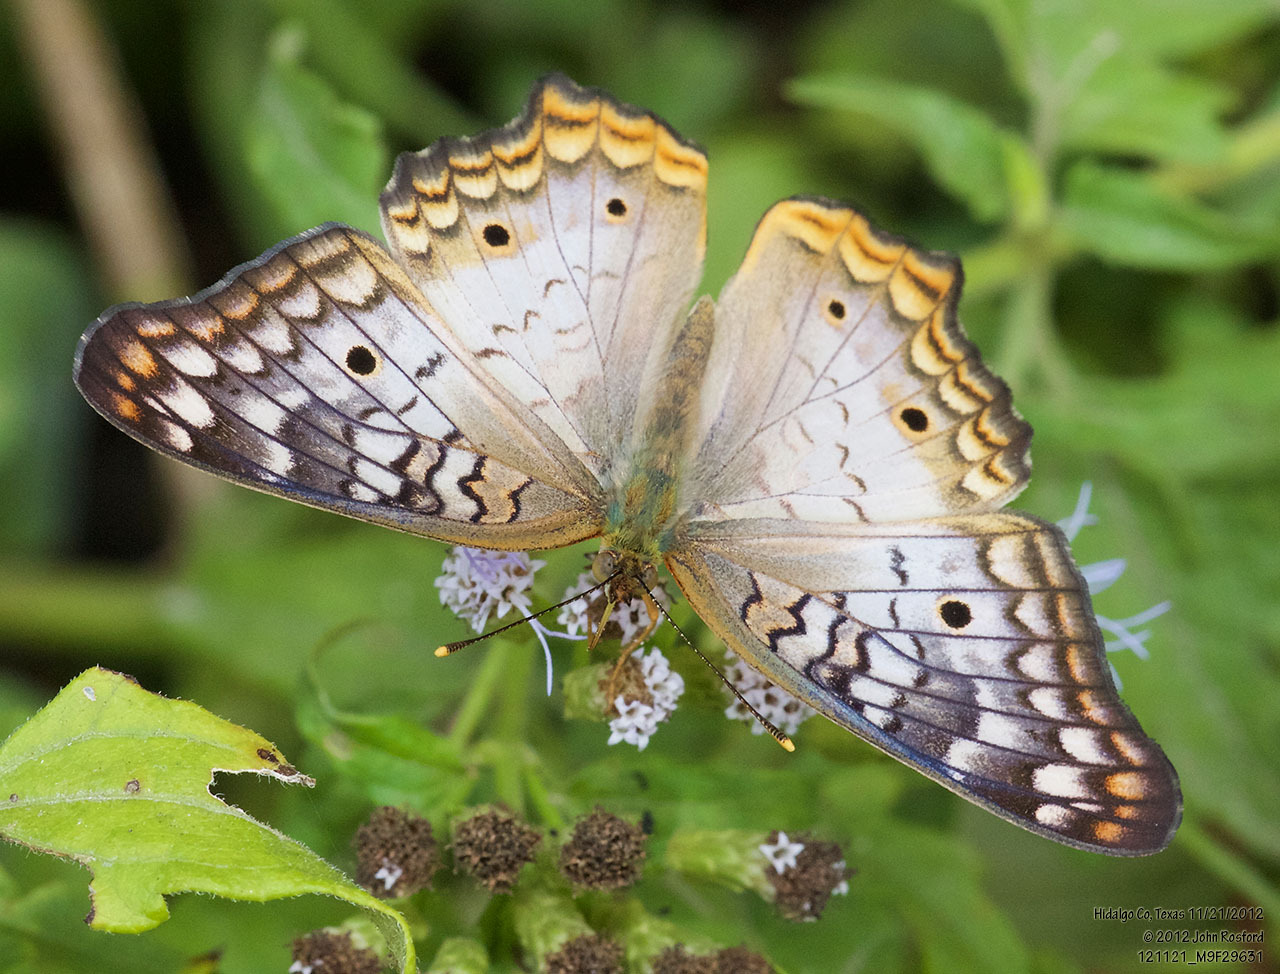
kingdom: Animalia
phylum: Arthropoda
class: Insecta
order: Lepidoptera
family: Nymphalidae
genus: Anartia
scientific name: Anartia jatrophae
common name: White peacock
